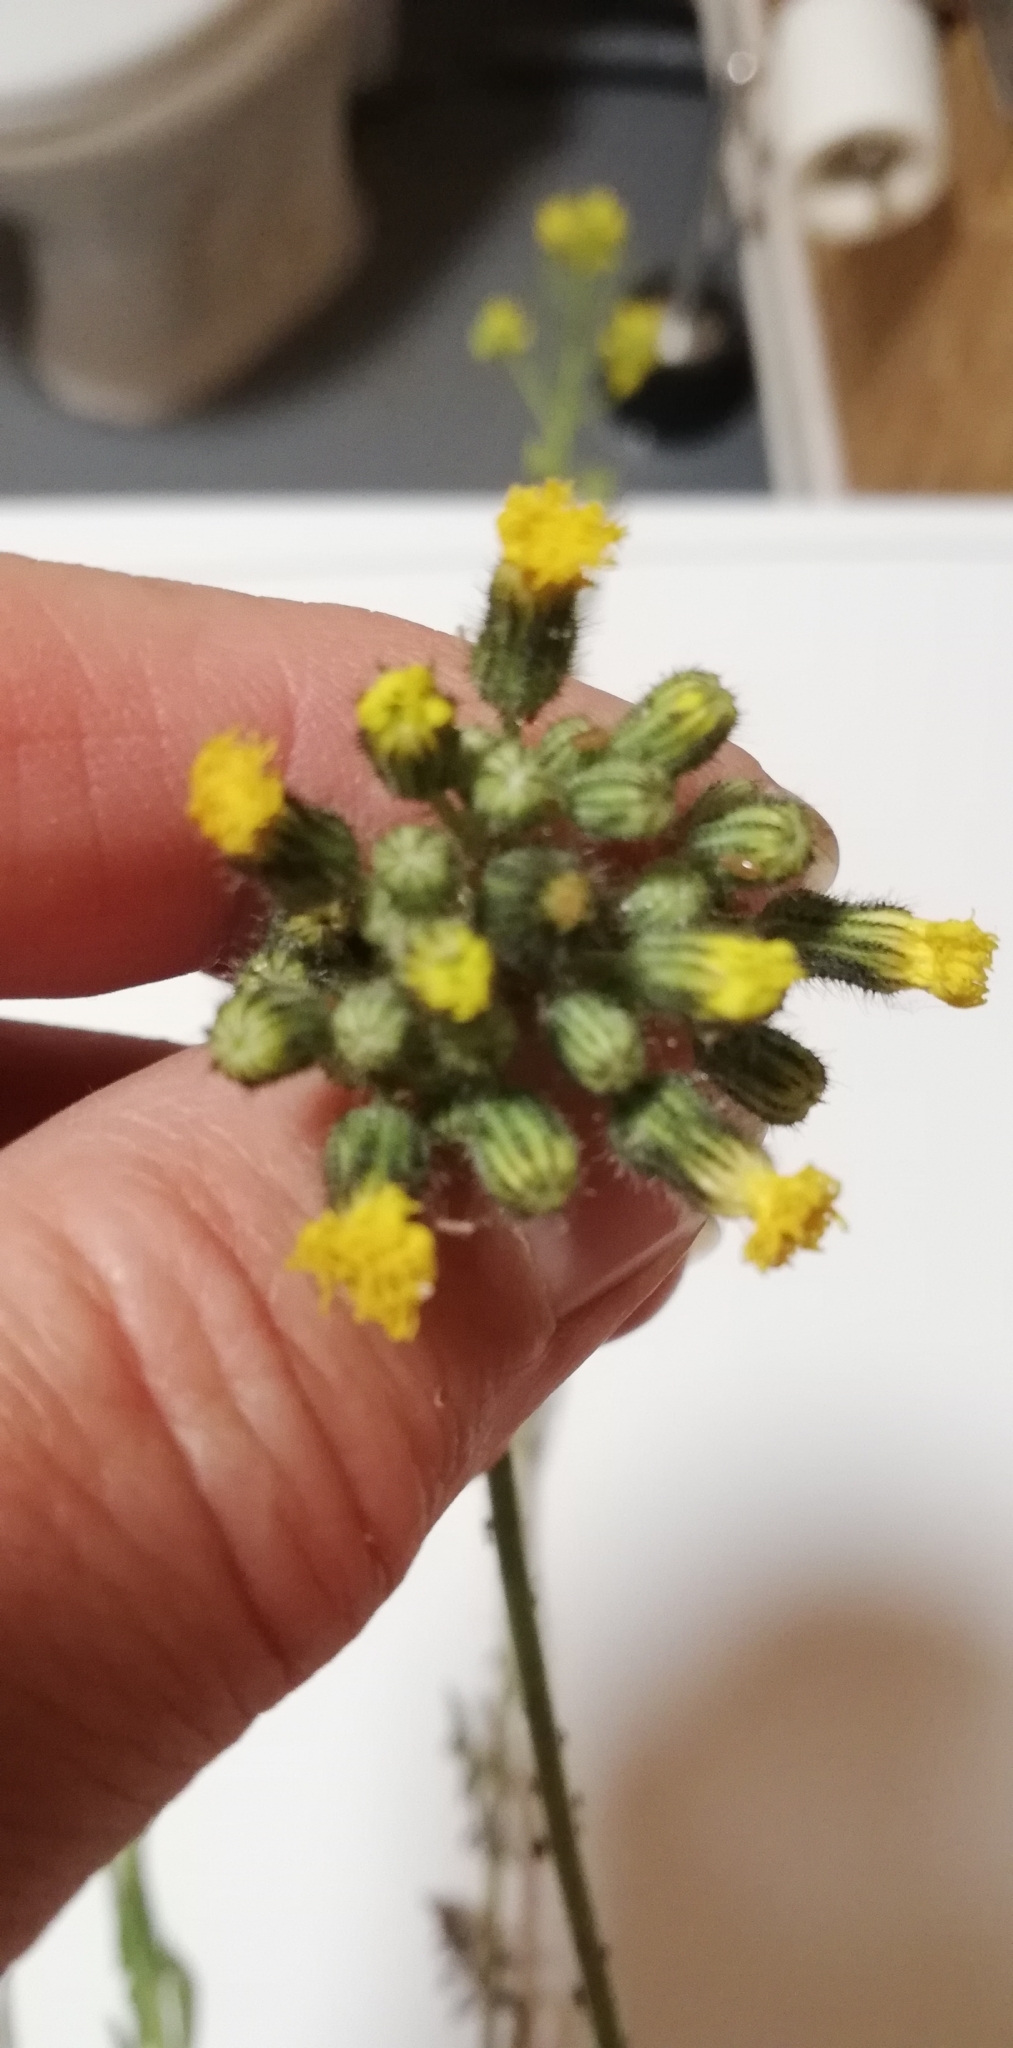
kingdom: Plantae
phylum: Tracheophyta
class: Magnoliopsida
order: Asterales
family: Asteraceae
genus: Pilosella
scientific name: Pilosella
